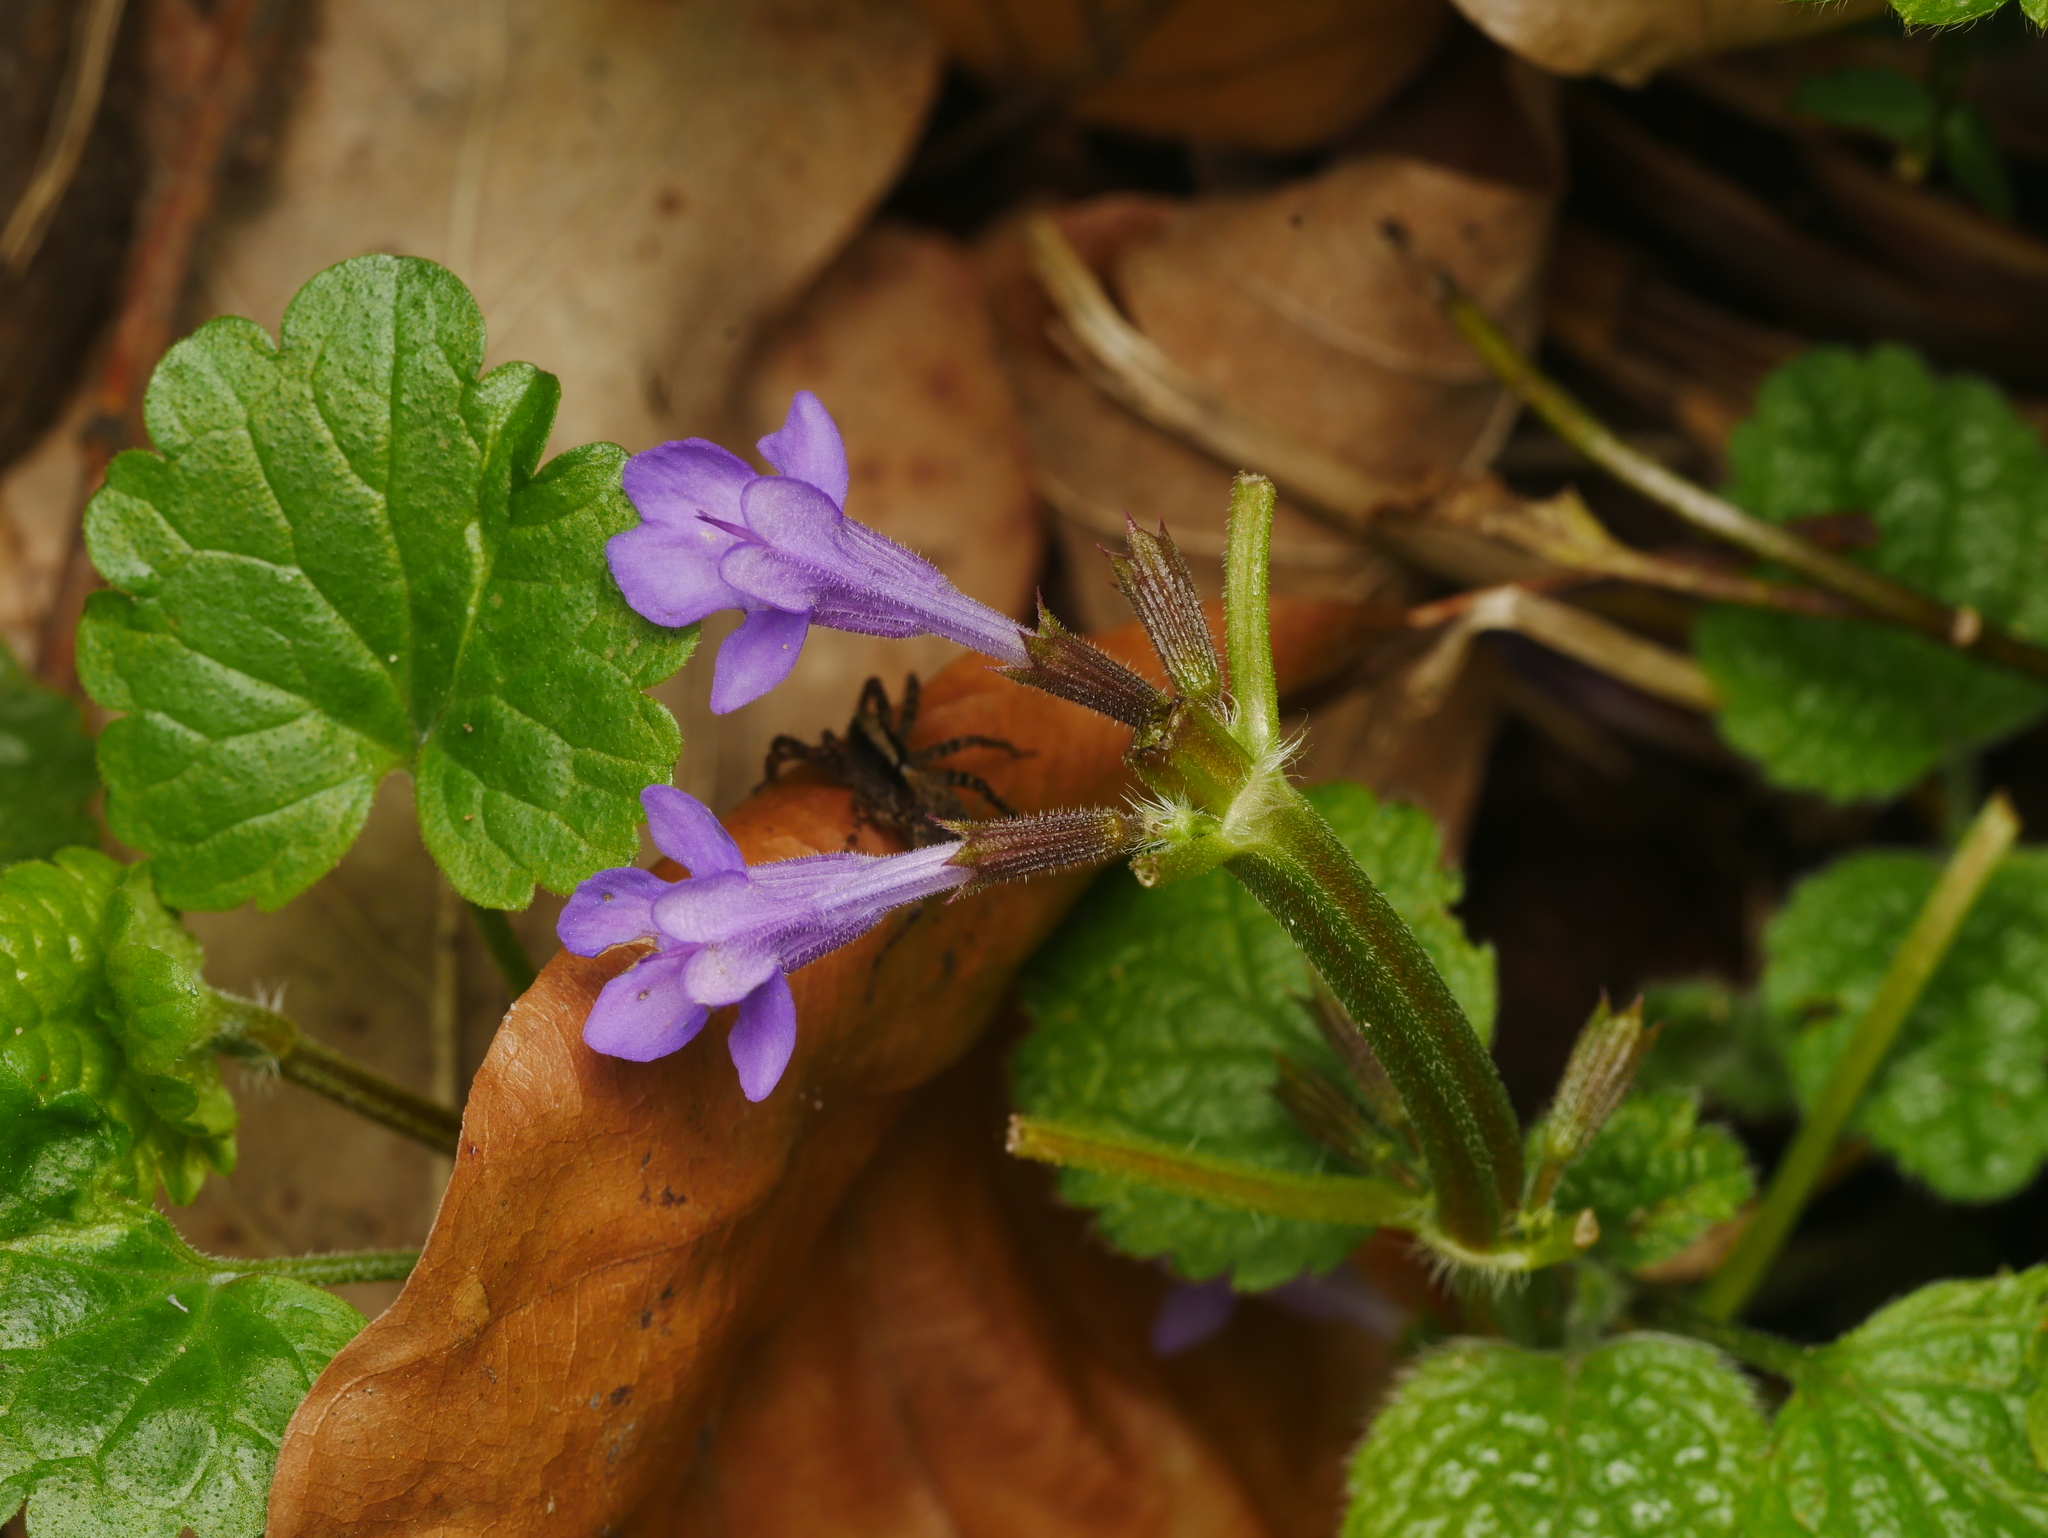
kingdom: Plantae
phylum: Tracheophyta
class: Magnoliopsida
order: Lamiales
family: Lamiaceae
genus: Glechoma
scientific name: Glechoma hederacea
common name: Ground ivy
